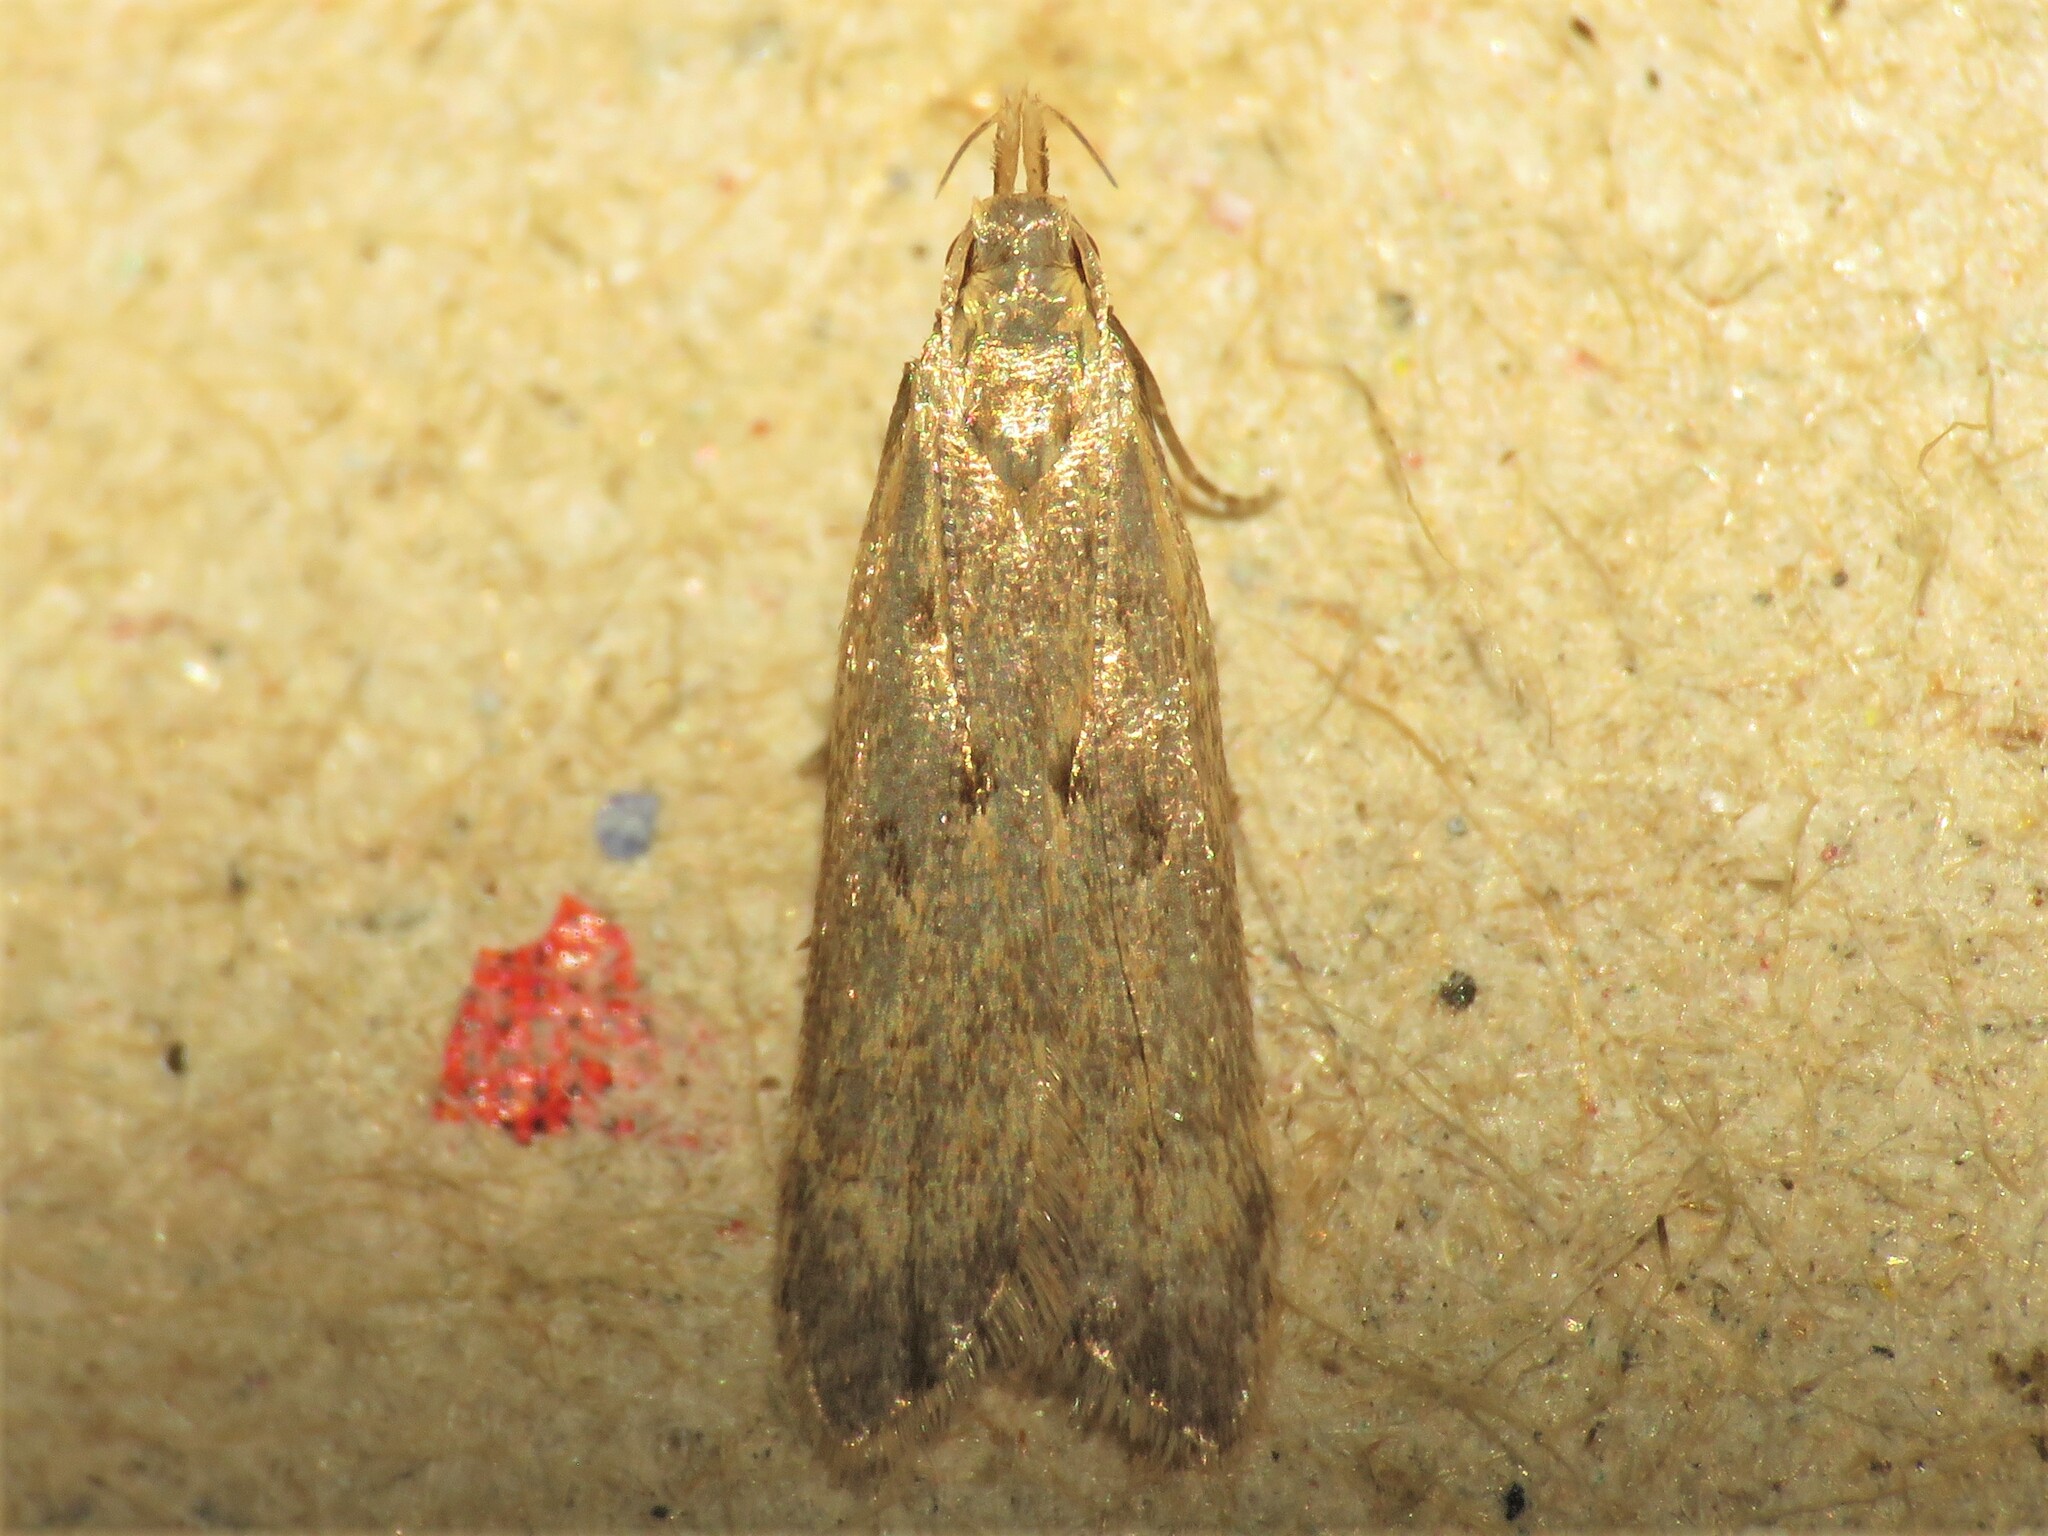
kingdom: Animalia
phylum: Arthropoda
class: Insecta
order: Lepidoptera
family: Gelechiidae
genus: Dichomeris
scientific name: Dichomeris punctipennella
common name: Many-spotted dichomeris moth
